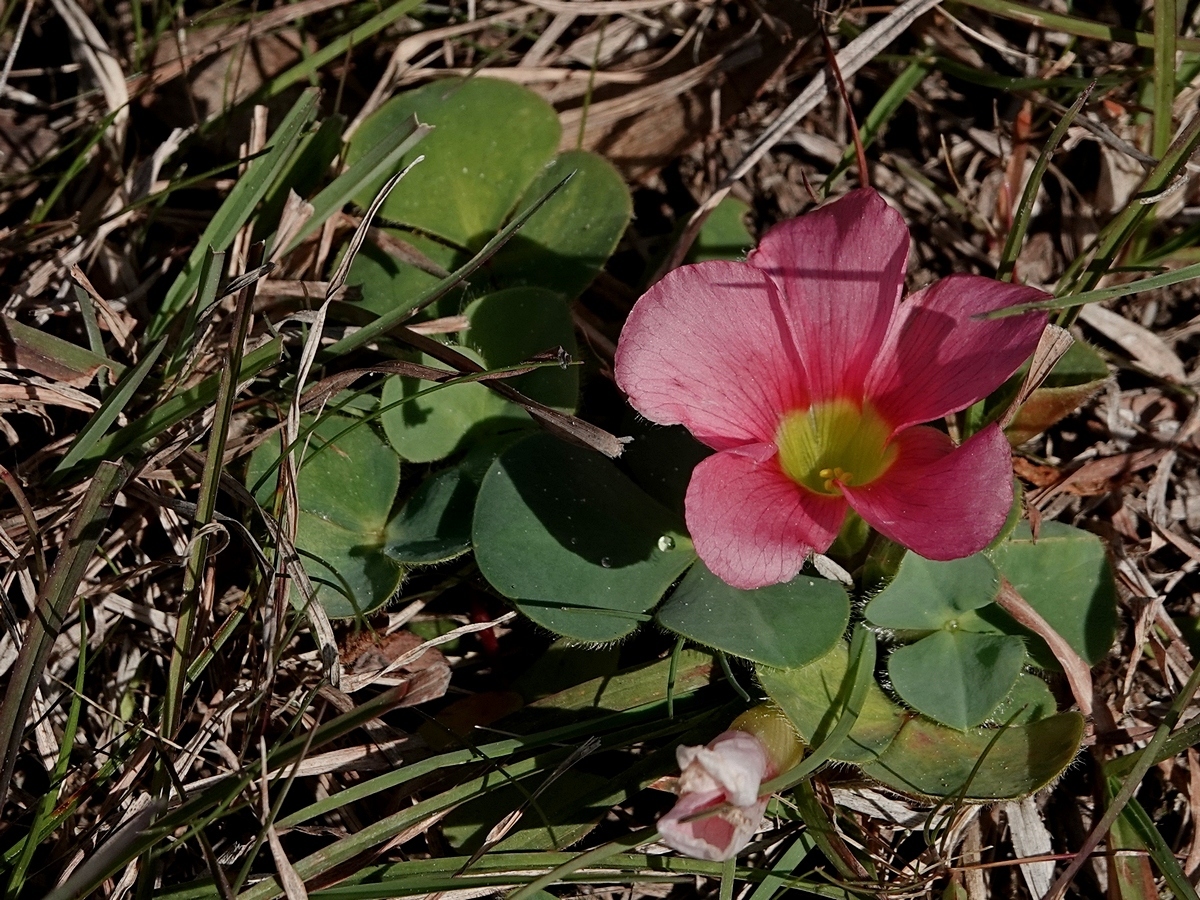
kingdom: Plantae
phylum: Tracheophyta
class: Magnoliopsida
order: Oxalidales
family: Oxalidaceae
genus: Oxalis
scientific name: Oxalis purpurea
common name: Purple woodsorrel
